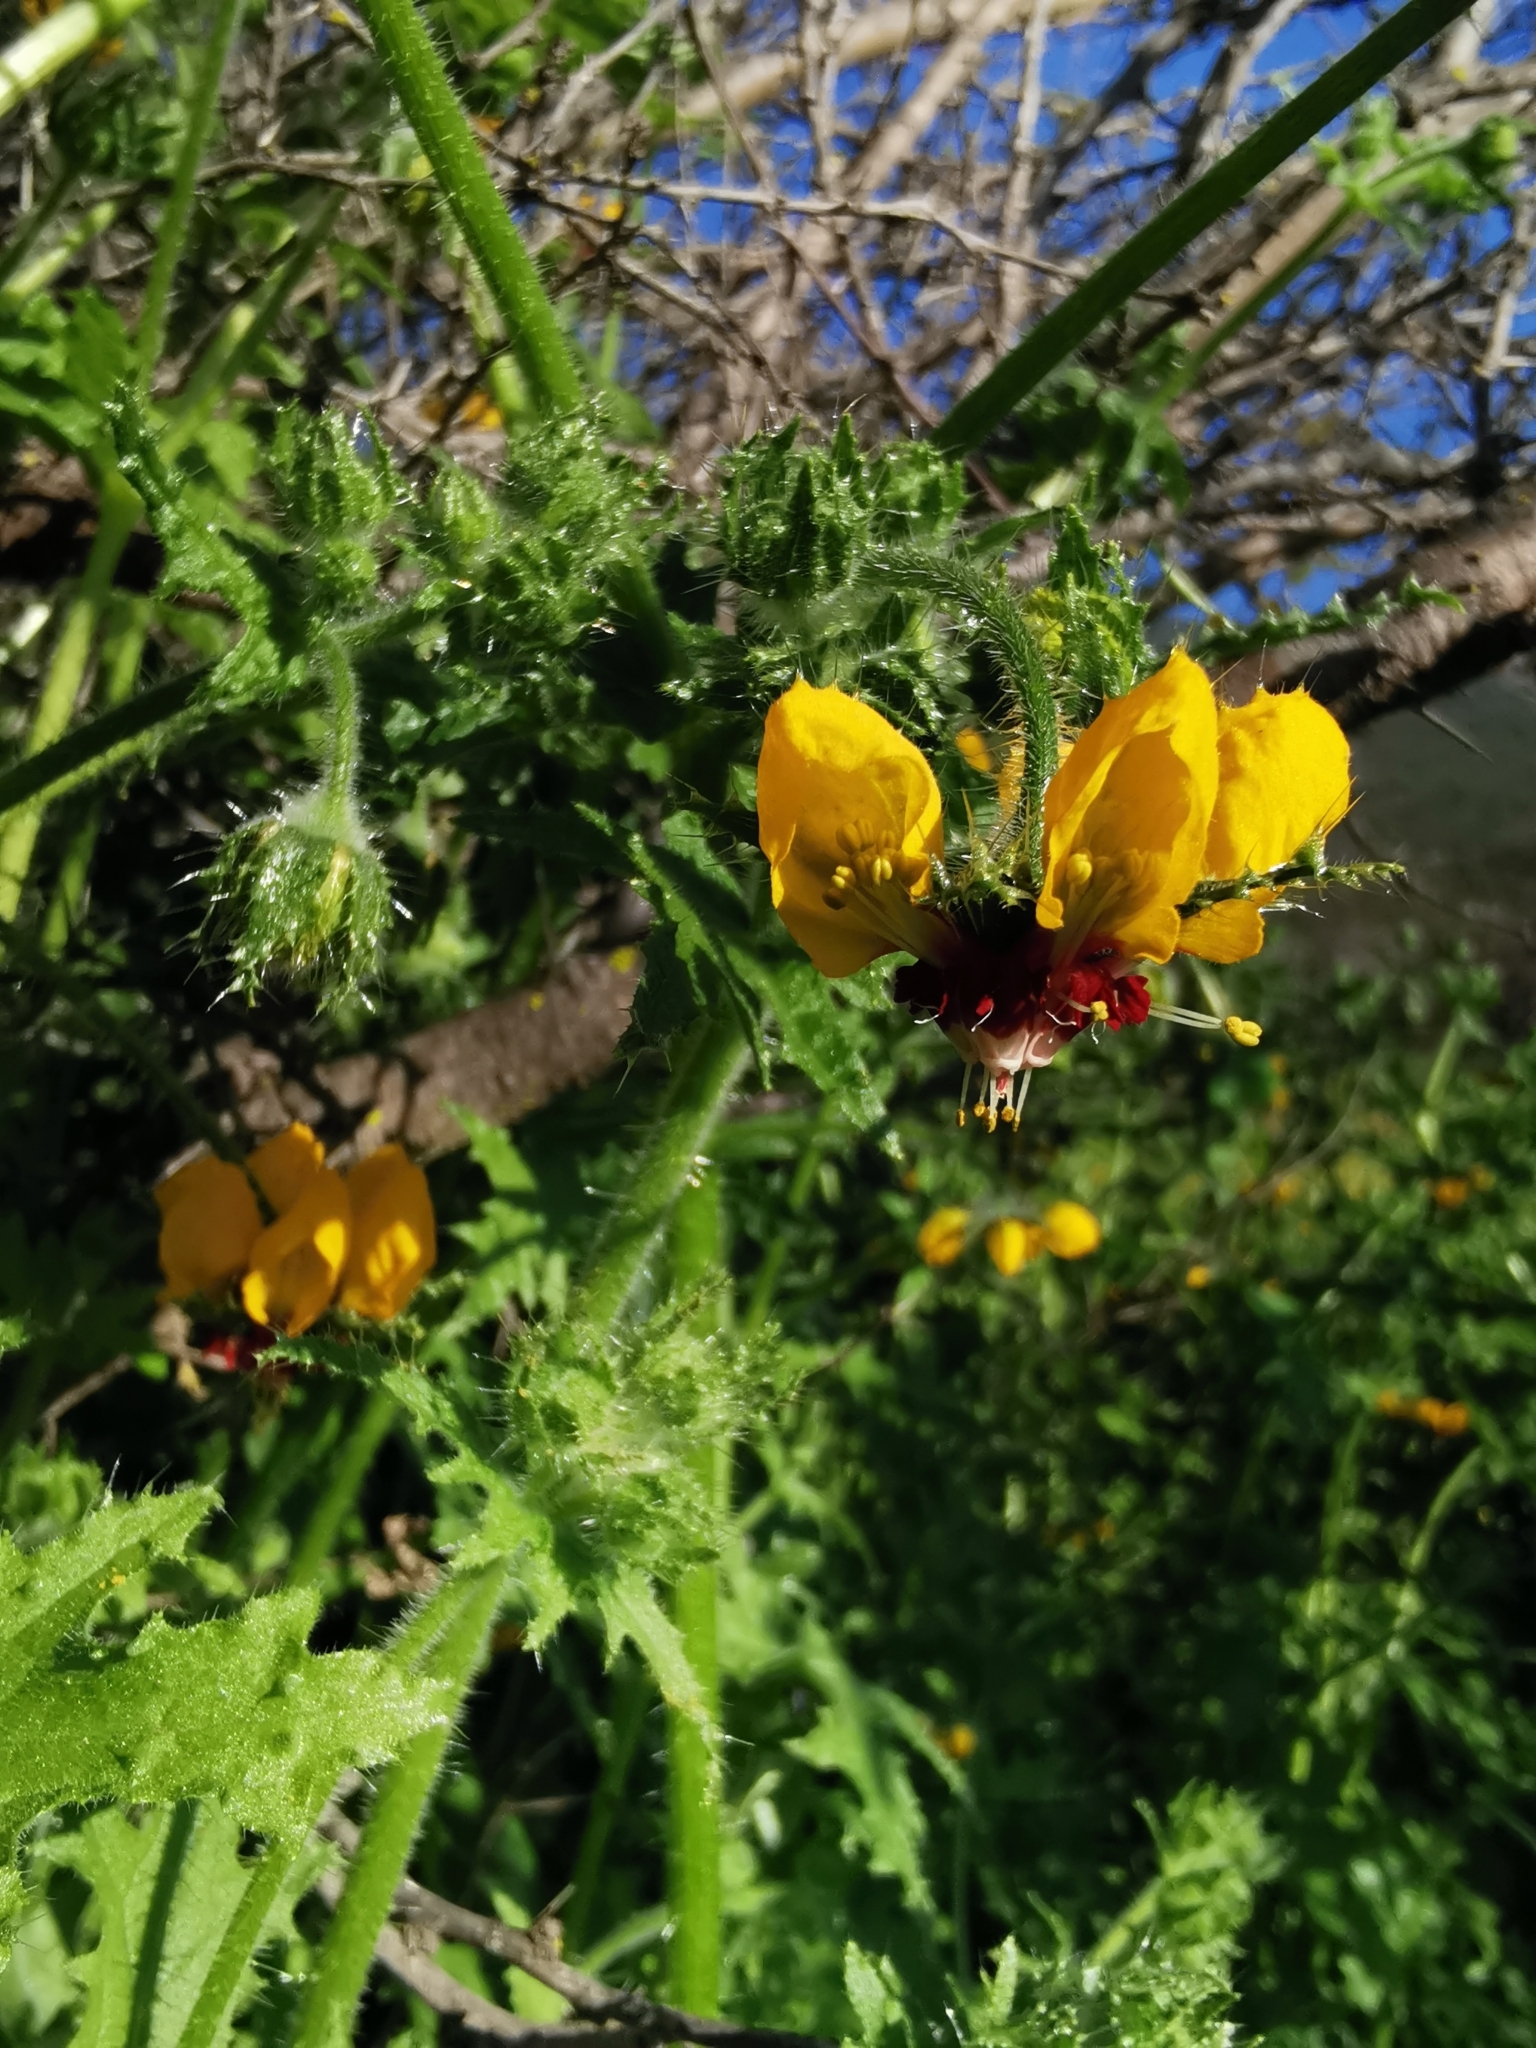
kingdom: Plantae
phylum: Tracheophyta
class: Magnoliopsida
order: Cornales
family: Loasaceae
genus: Loasa
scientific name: Loasa tricolor
